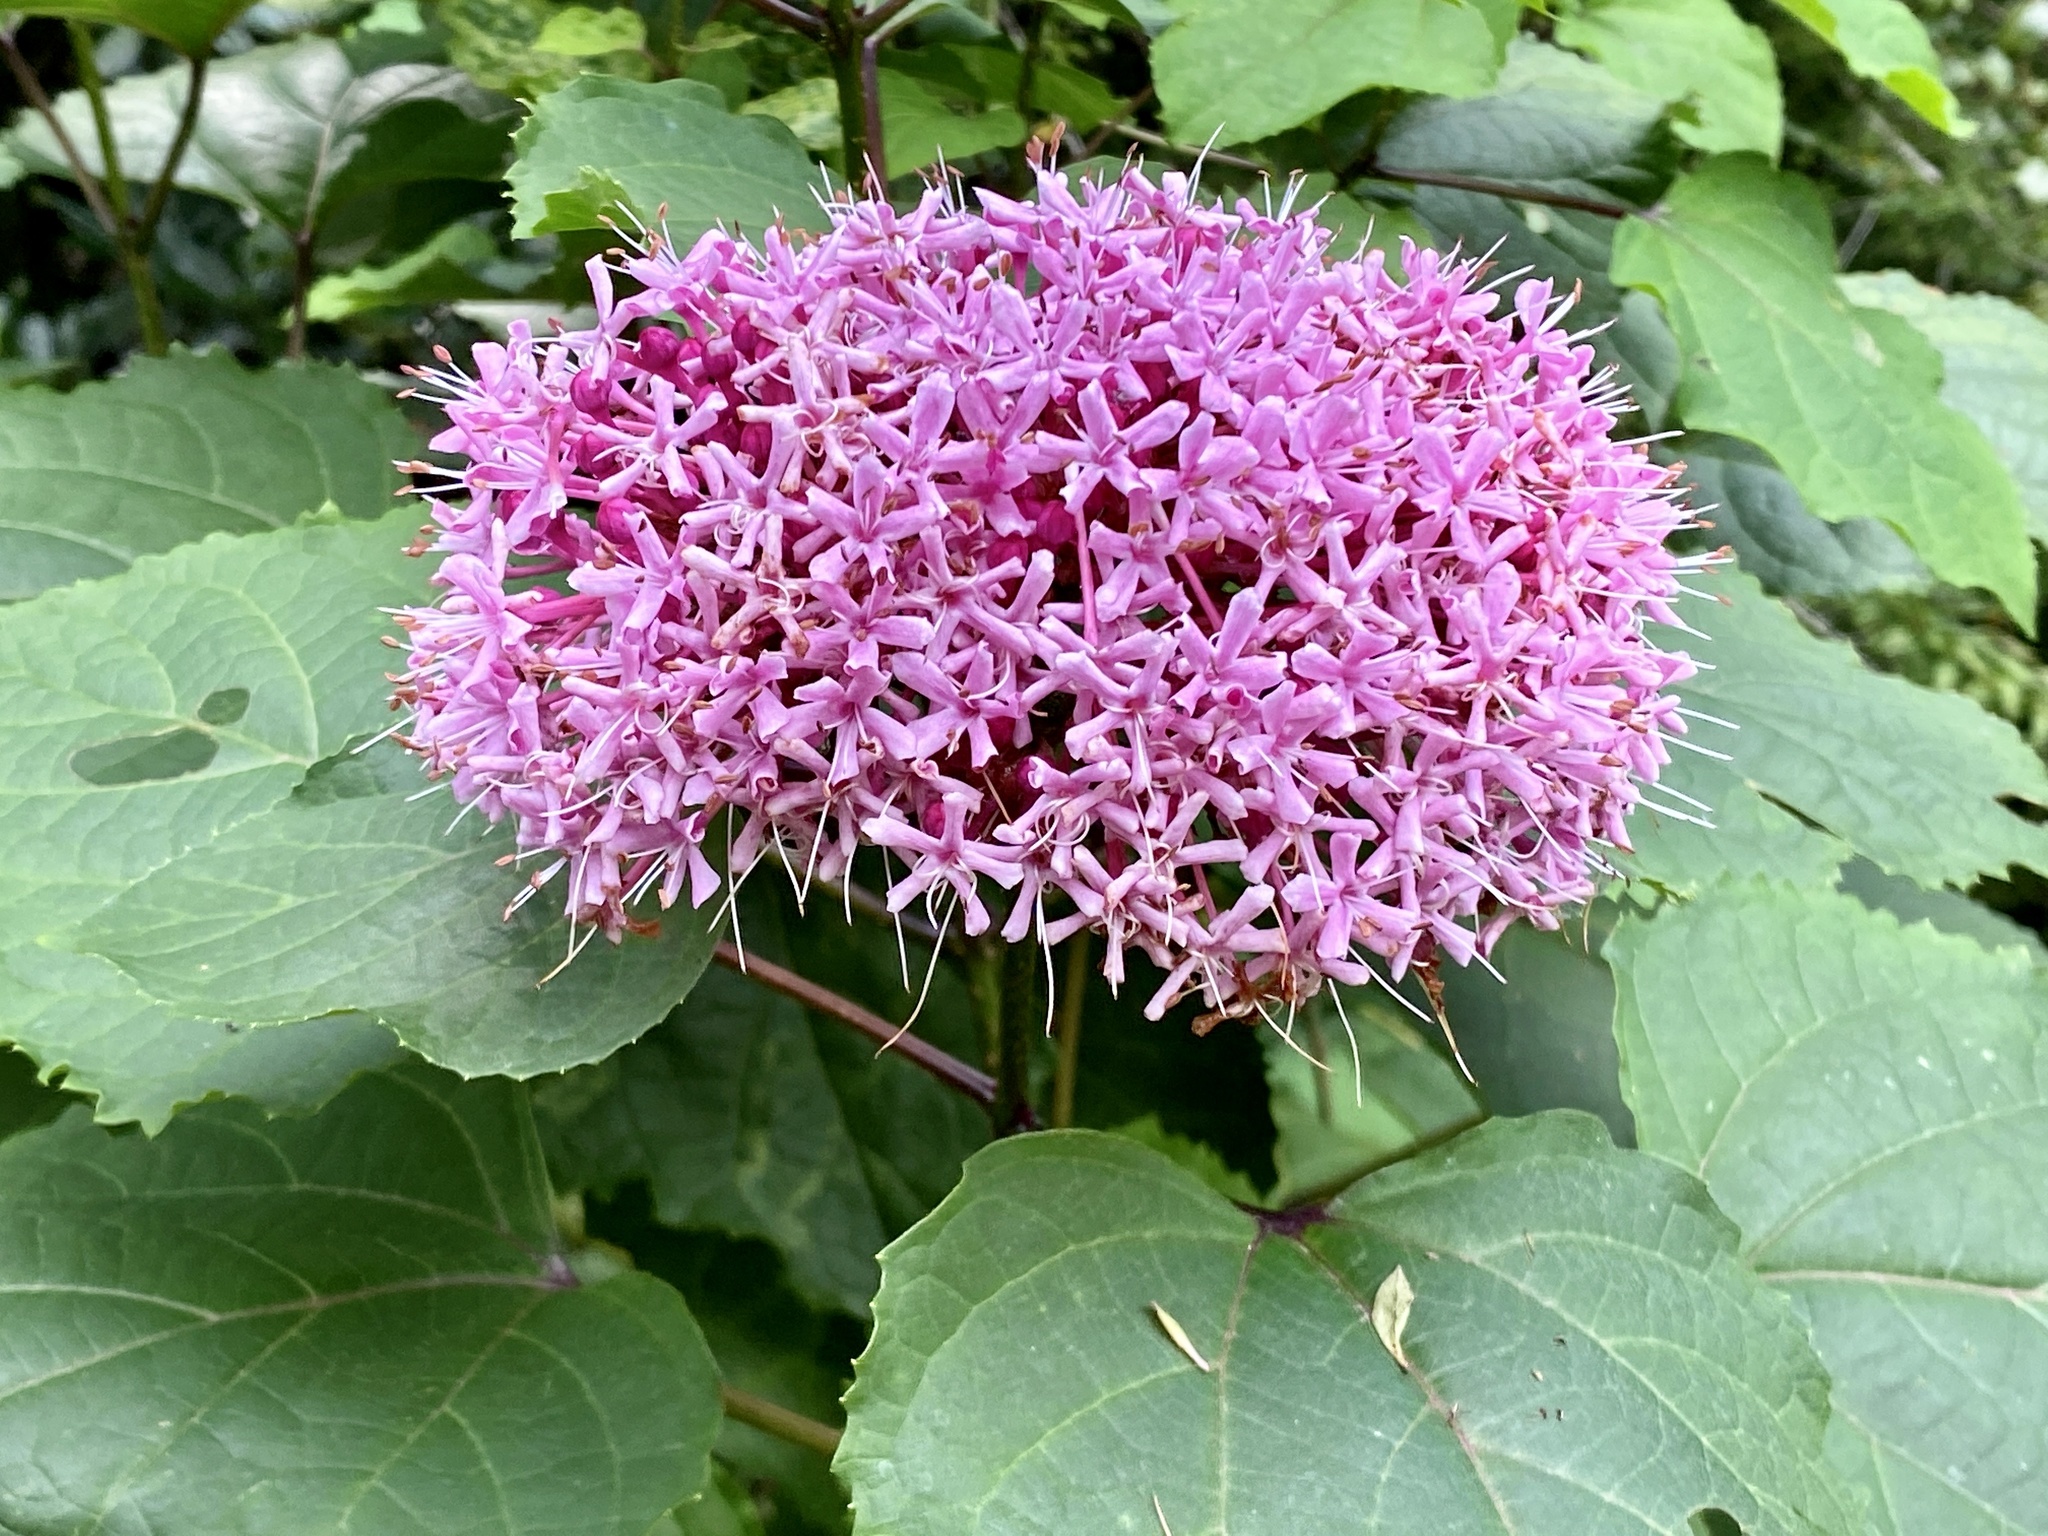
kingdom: Plantae
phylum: Tracheophyta
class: Magnoliopsida
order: Lamiales
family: Lamiaceae
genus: Clerodendrum
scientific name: Clerodendrum bungei
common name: Rose glorybower
